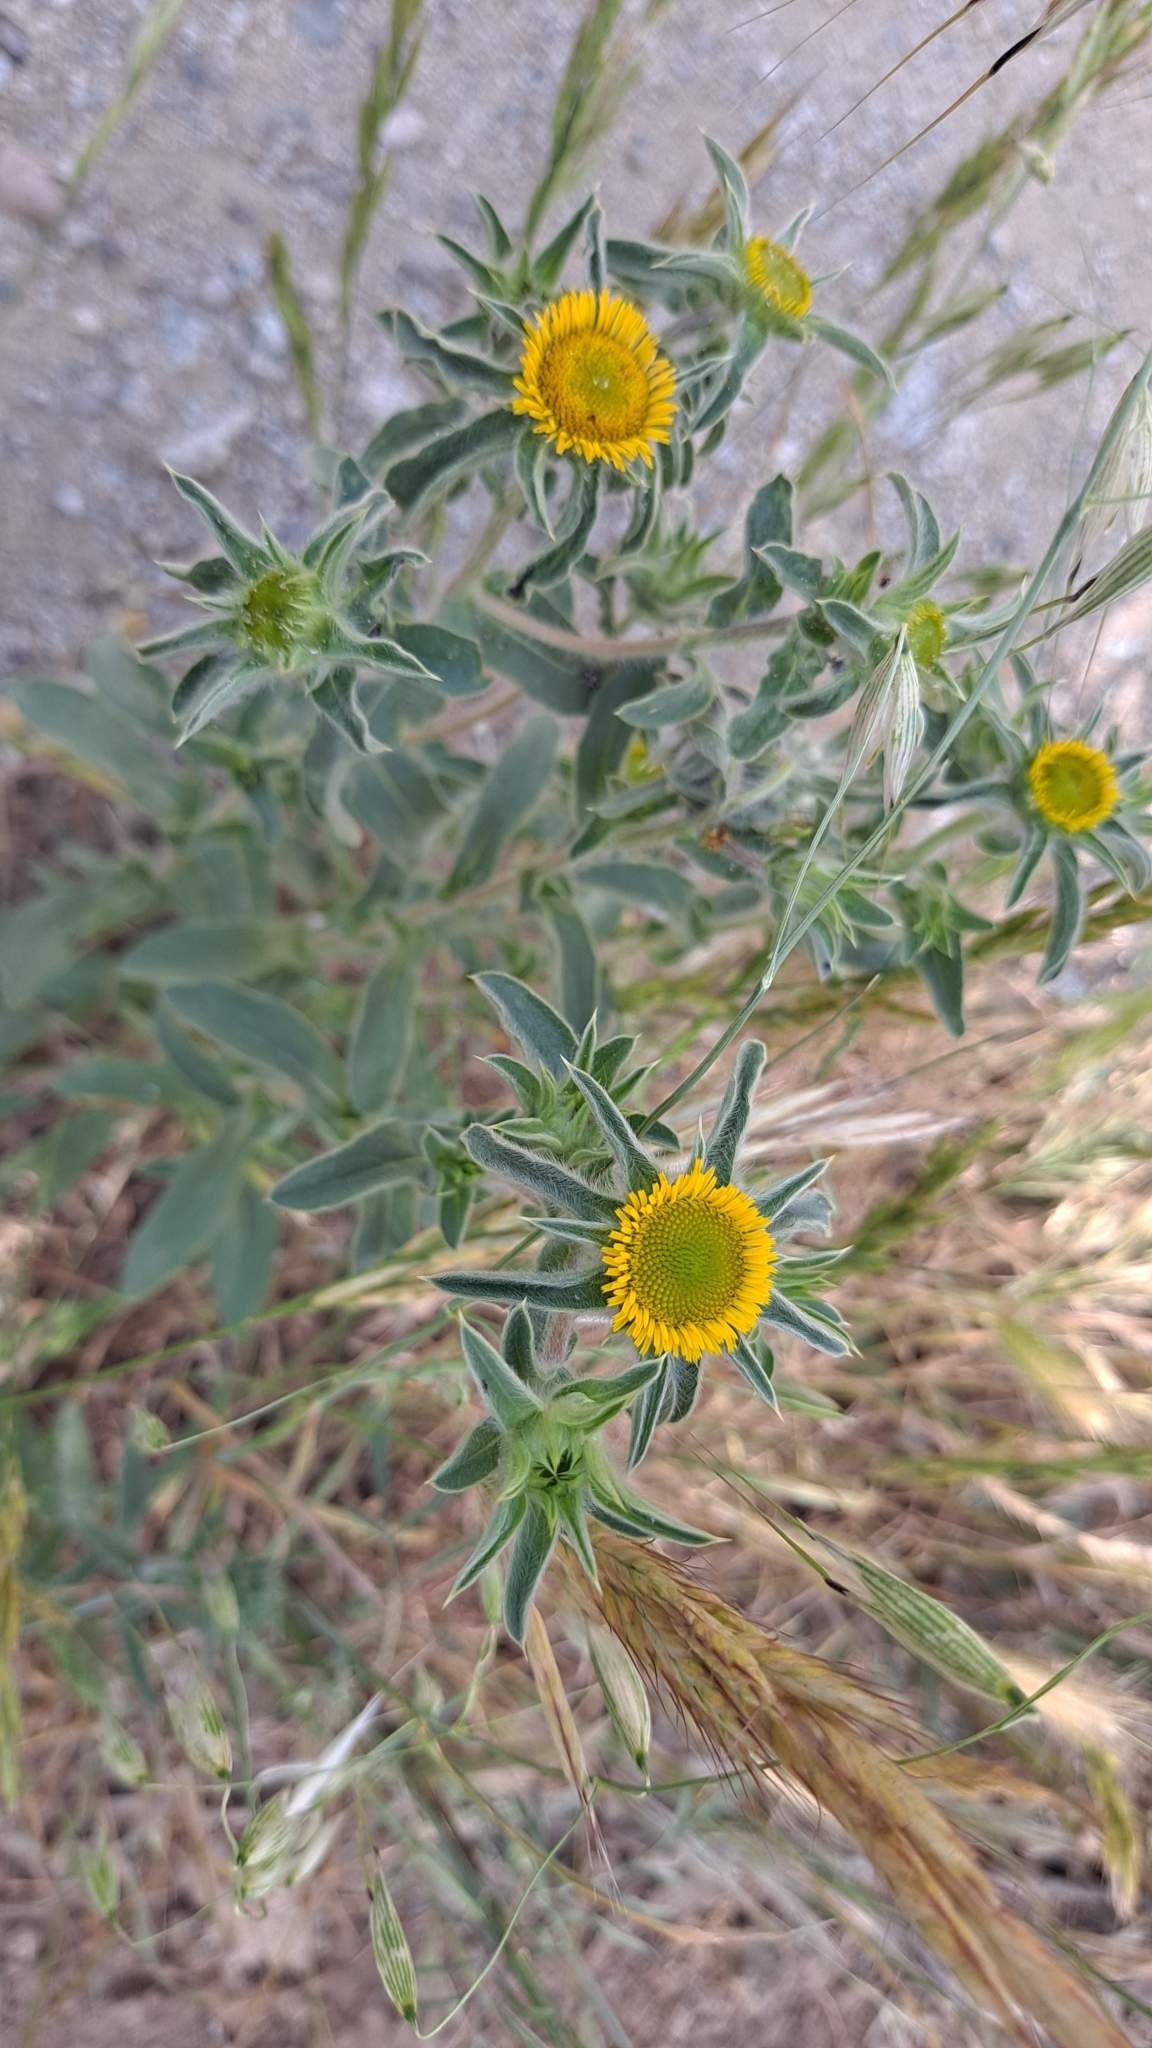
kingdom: Plantae
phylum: Tracheophyta
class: Magnoliopsida
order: Asterales
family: Asteraceae
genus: Pallenis
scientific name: Pallenis spinosa
